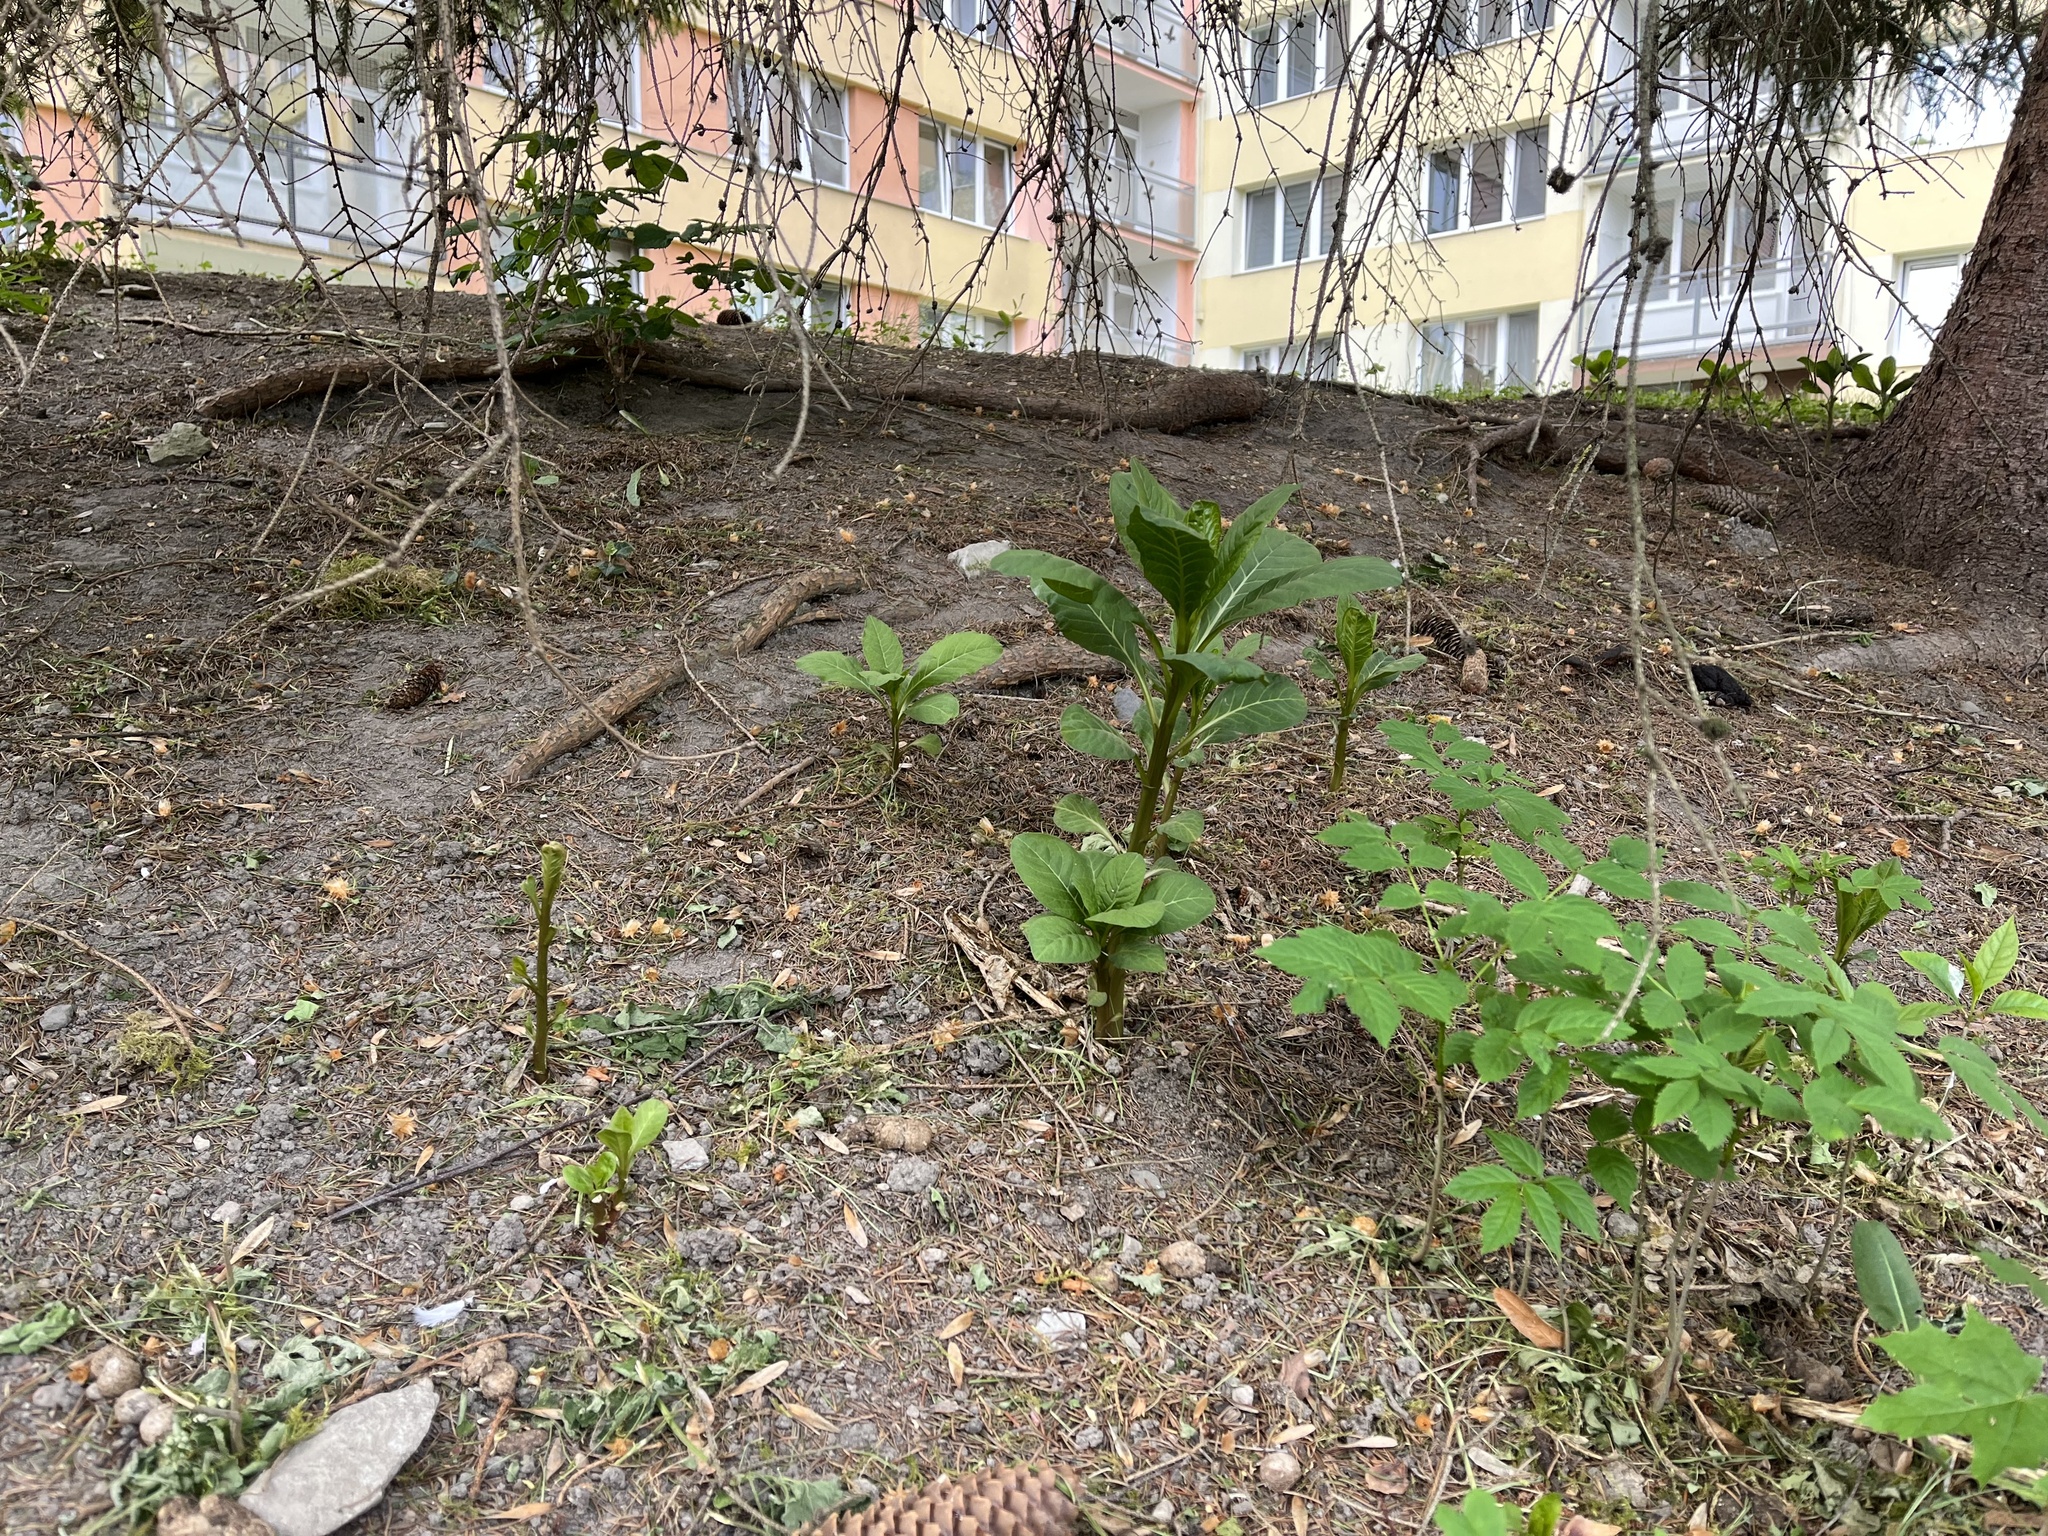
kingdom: Plantae
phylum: Tracheophyta
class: Magnoliopsida
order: Caryophyllales
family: Phytolaccaceae
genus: Phytolacca
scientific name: Phytolacca acinosa
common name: Indian pokeweed
